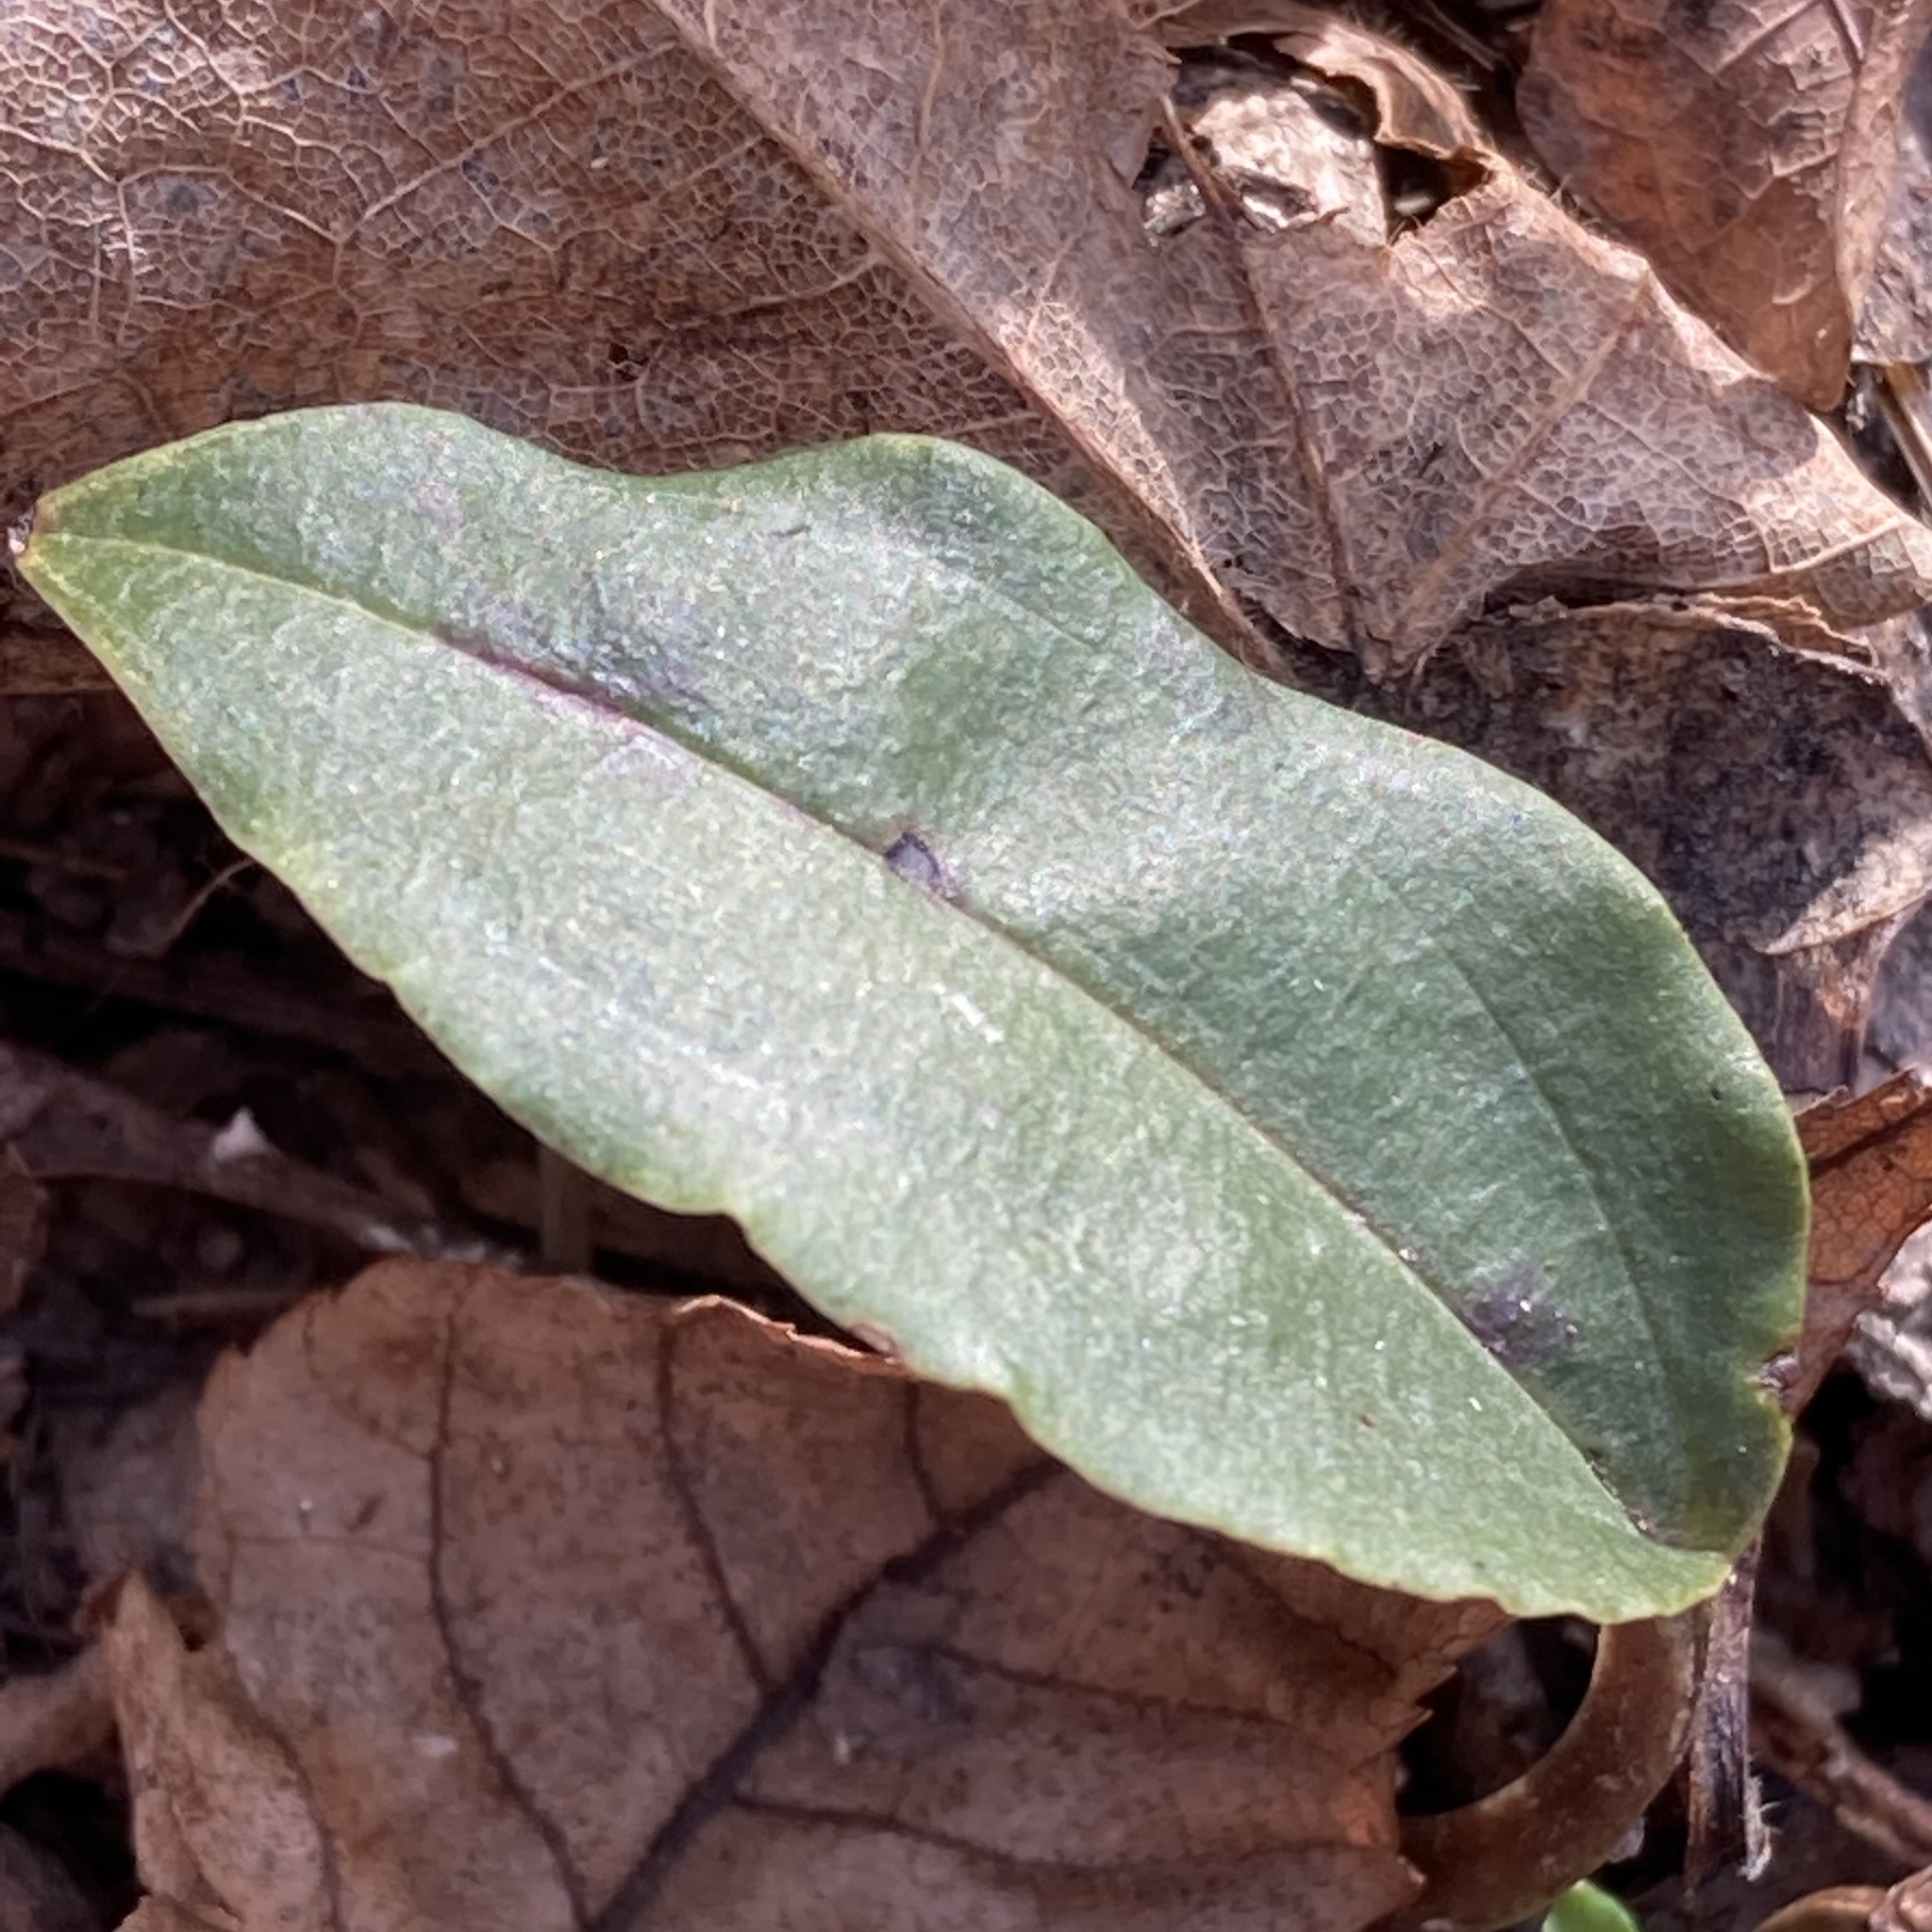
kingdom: Plantae
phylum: Tracheophyta
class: Liliopsida
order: Asparagales
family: Orchidaceae
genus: Tipularia
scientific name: Tipularia discolor
